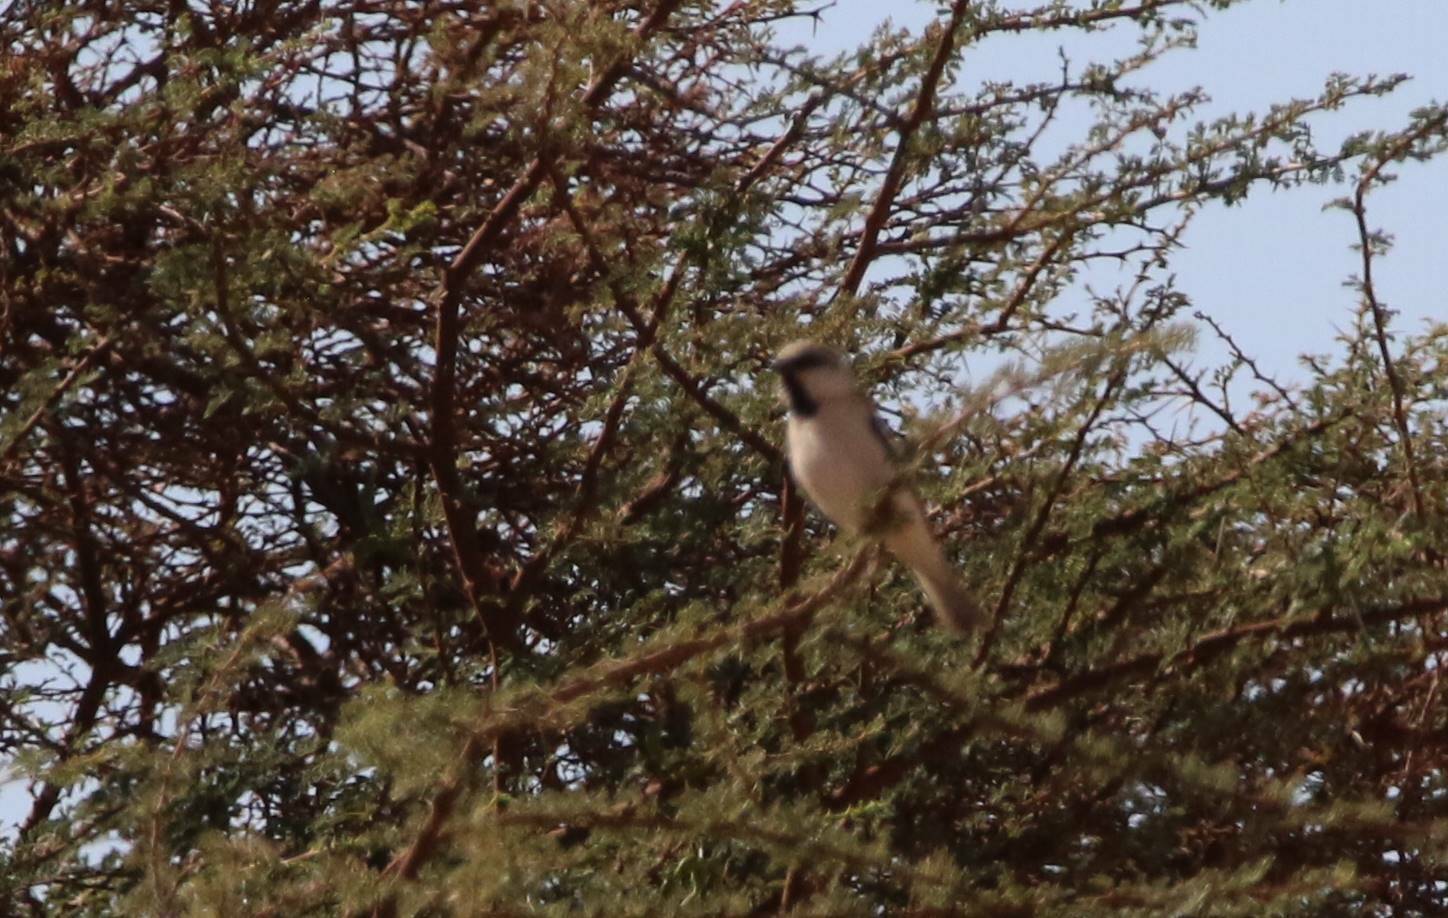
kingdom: Animalia
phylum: Chordata
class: Aves
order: Passeriformes
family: Passeridae
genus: Passer
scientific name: Passer simplex
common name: Desert sparrow
